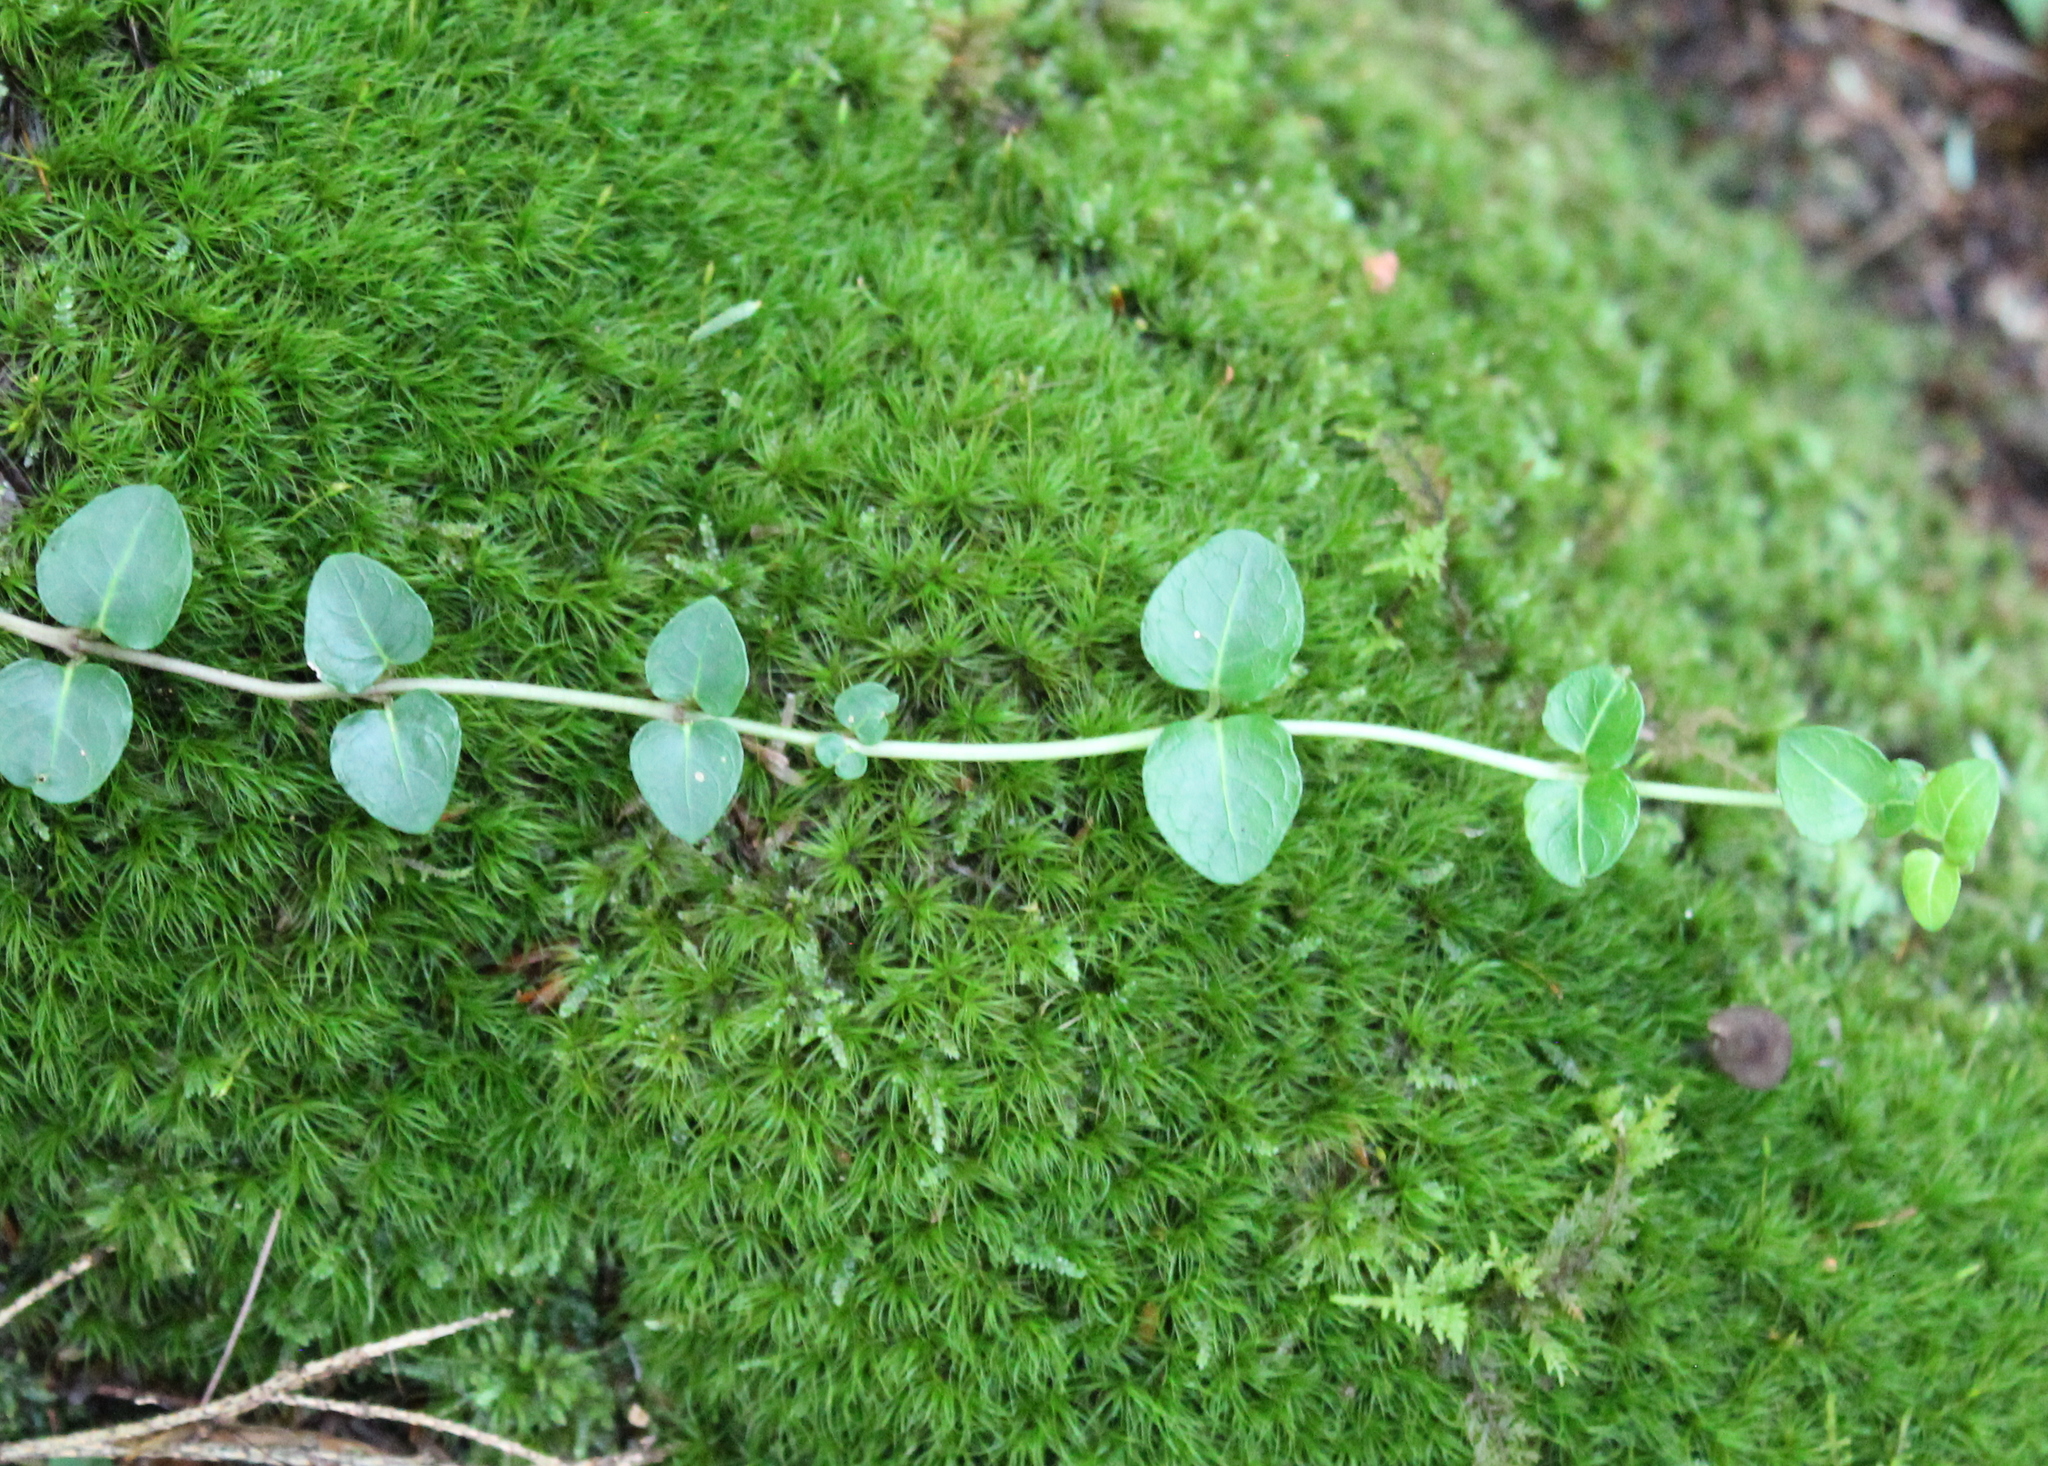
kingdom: Plantae
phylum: Tracheophyta
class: Magnoliopsida
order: Gentianales
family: Rubiaceae
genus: Mitchella
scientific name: Mitchella repens
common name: Partridge-berry
